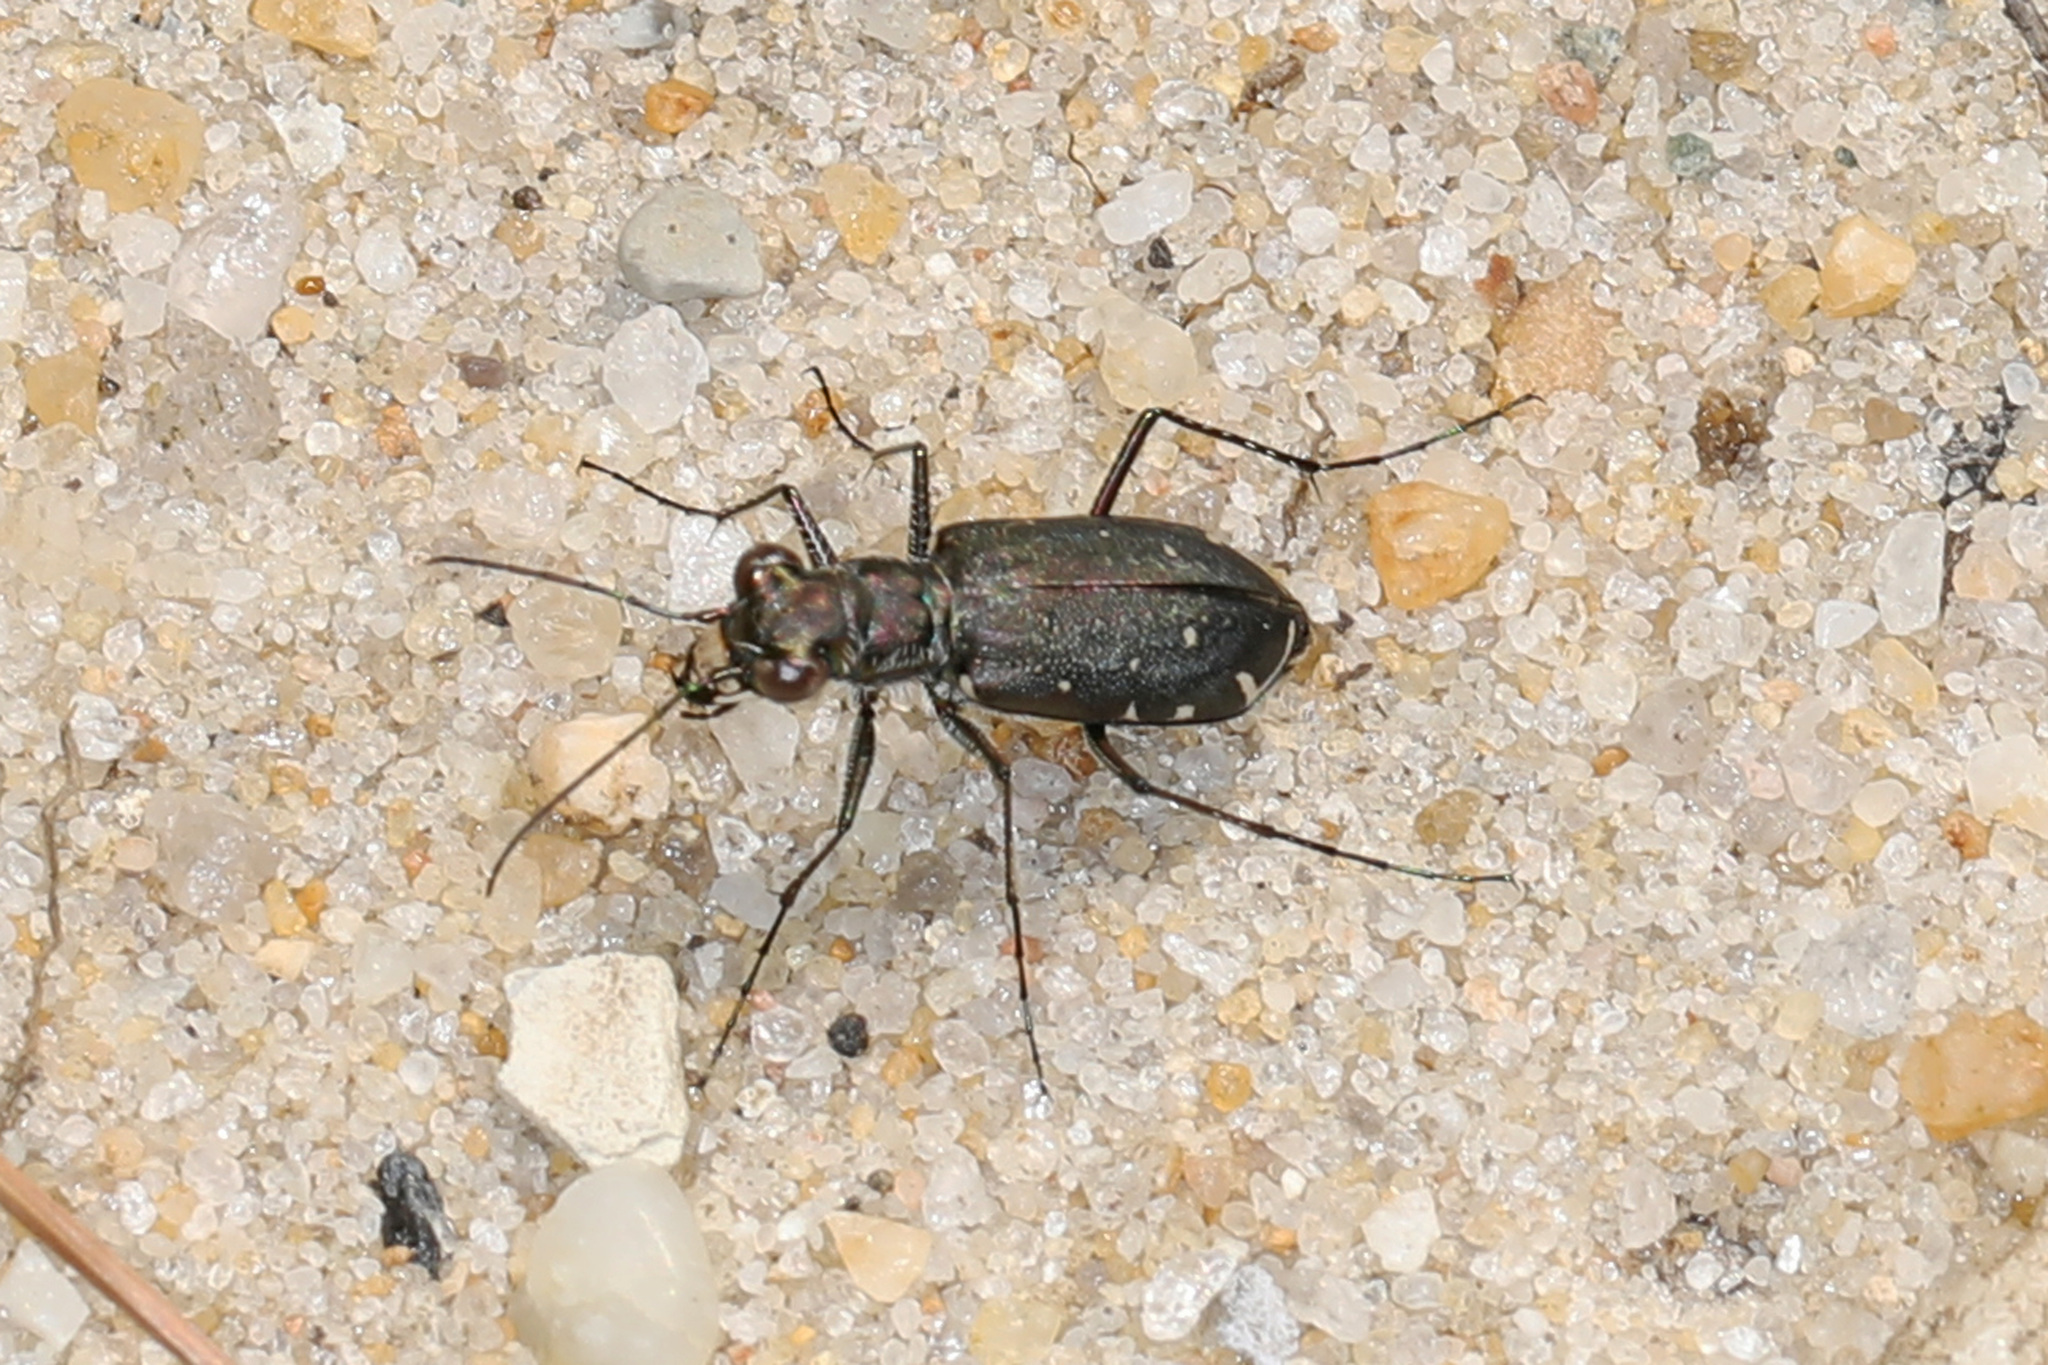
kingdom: Animalia
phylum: Arthropoda
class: Insecta
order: Coleoptera
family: Carabidae
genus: Cicindela
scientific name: Cicindela punctulata
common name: Punctured tiger beetle
